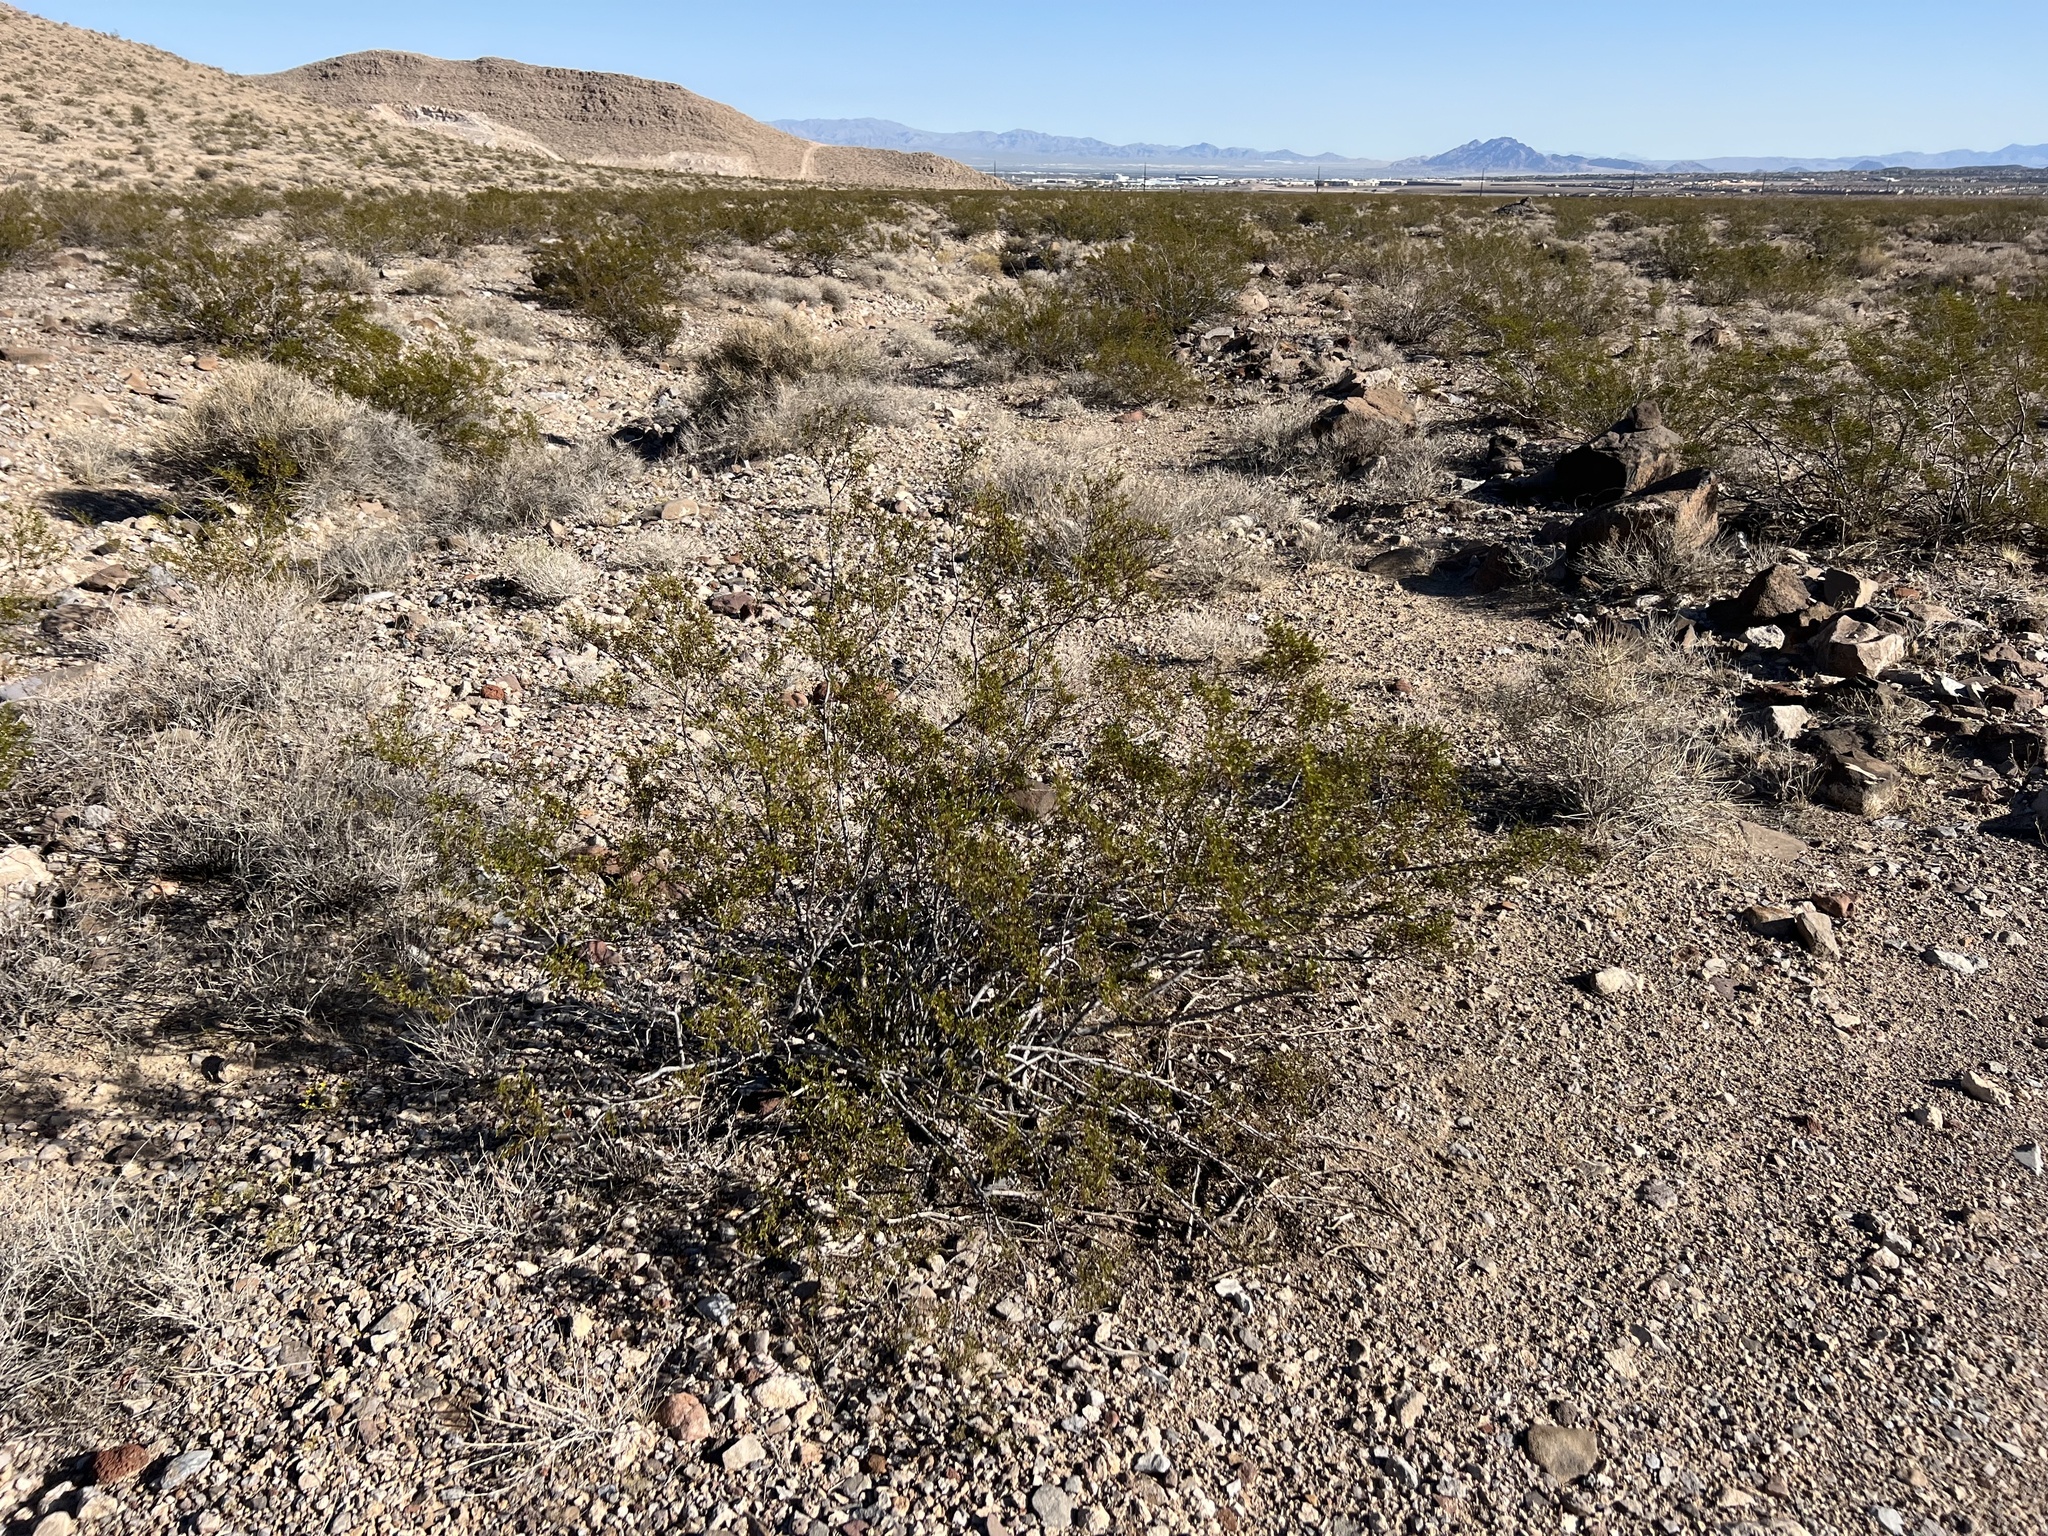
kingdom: Plantae
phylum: Tracheophyta
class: Magnoliopsida
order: Zygophyllales
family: Zygophyllaceae
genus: Larrea
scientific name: Larrea tridentata
